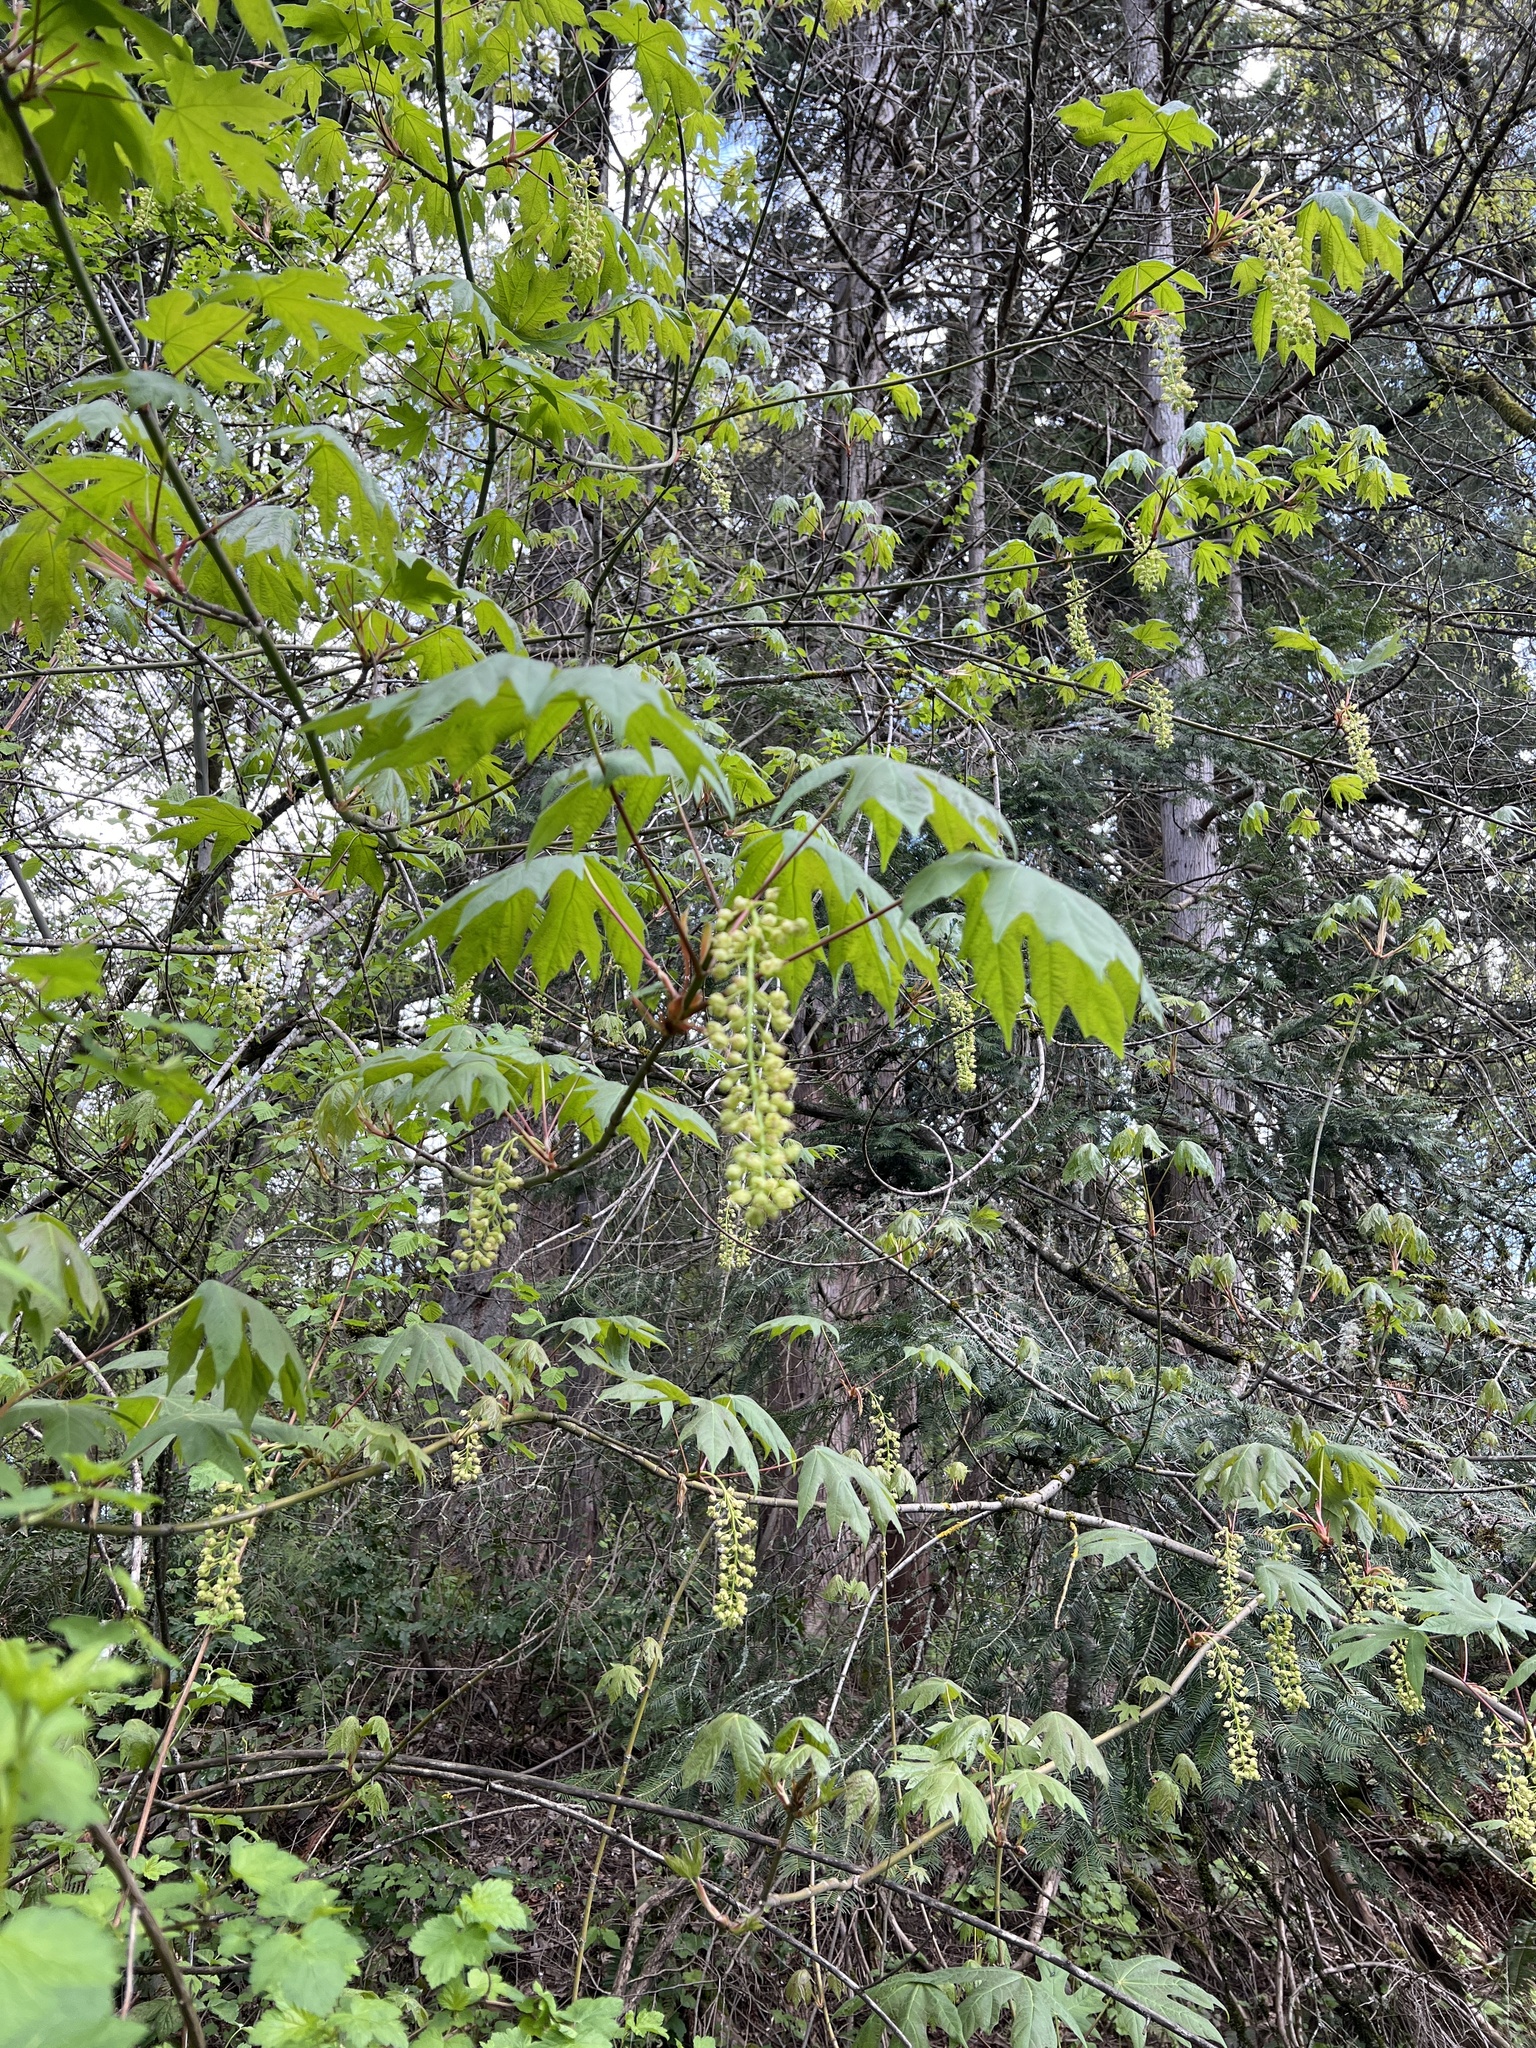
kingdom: Plantae
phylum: Tracheophyta
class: Magnoliopsida
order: Sapindales
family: Sapindaceae
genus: Acer
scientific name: Acer macrophyllum
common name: Oregon maple
